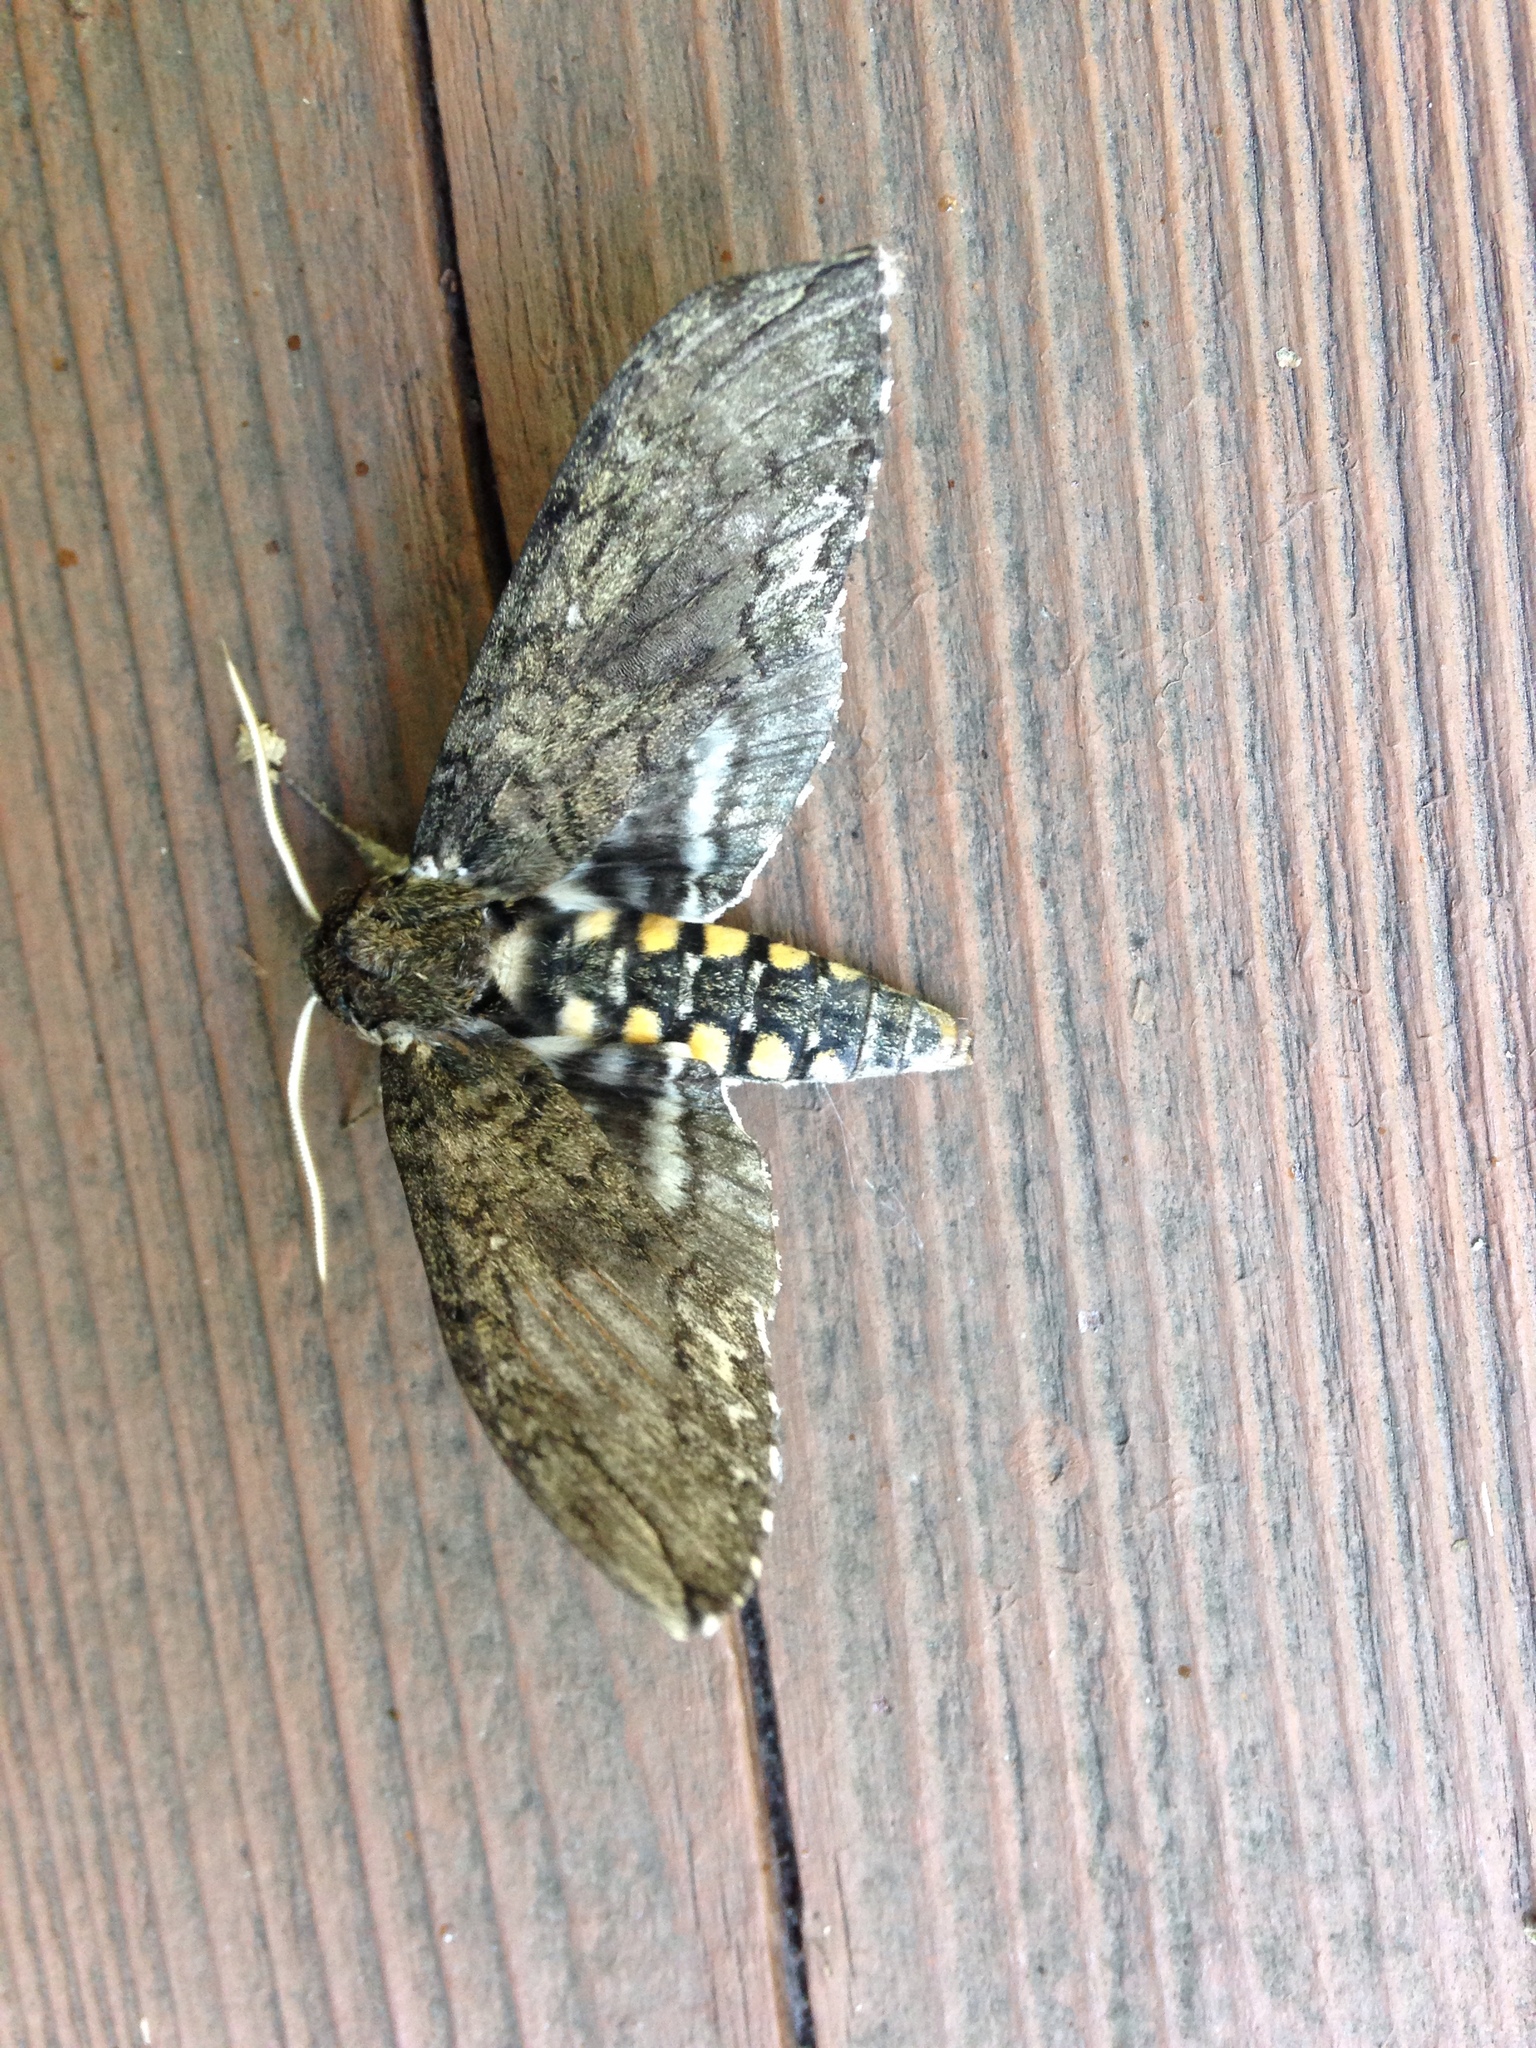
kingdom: Animalia
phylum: Arthropoda
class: Insecta
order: Lepidoptera
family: Sphingidae
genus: Manduca
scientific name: Manduca sexta
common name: Carolina sphinx
